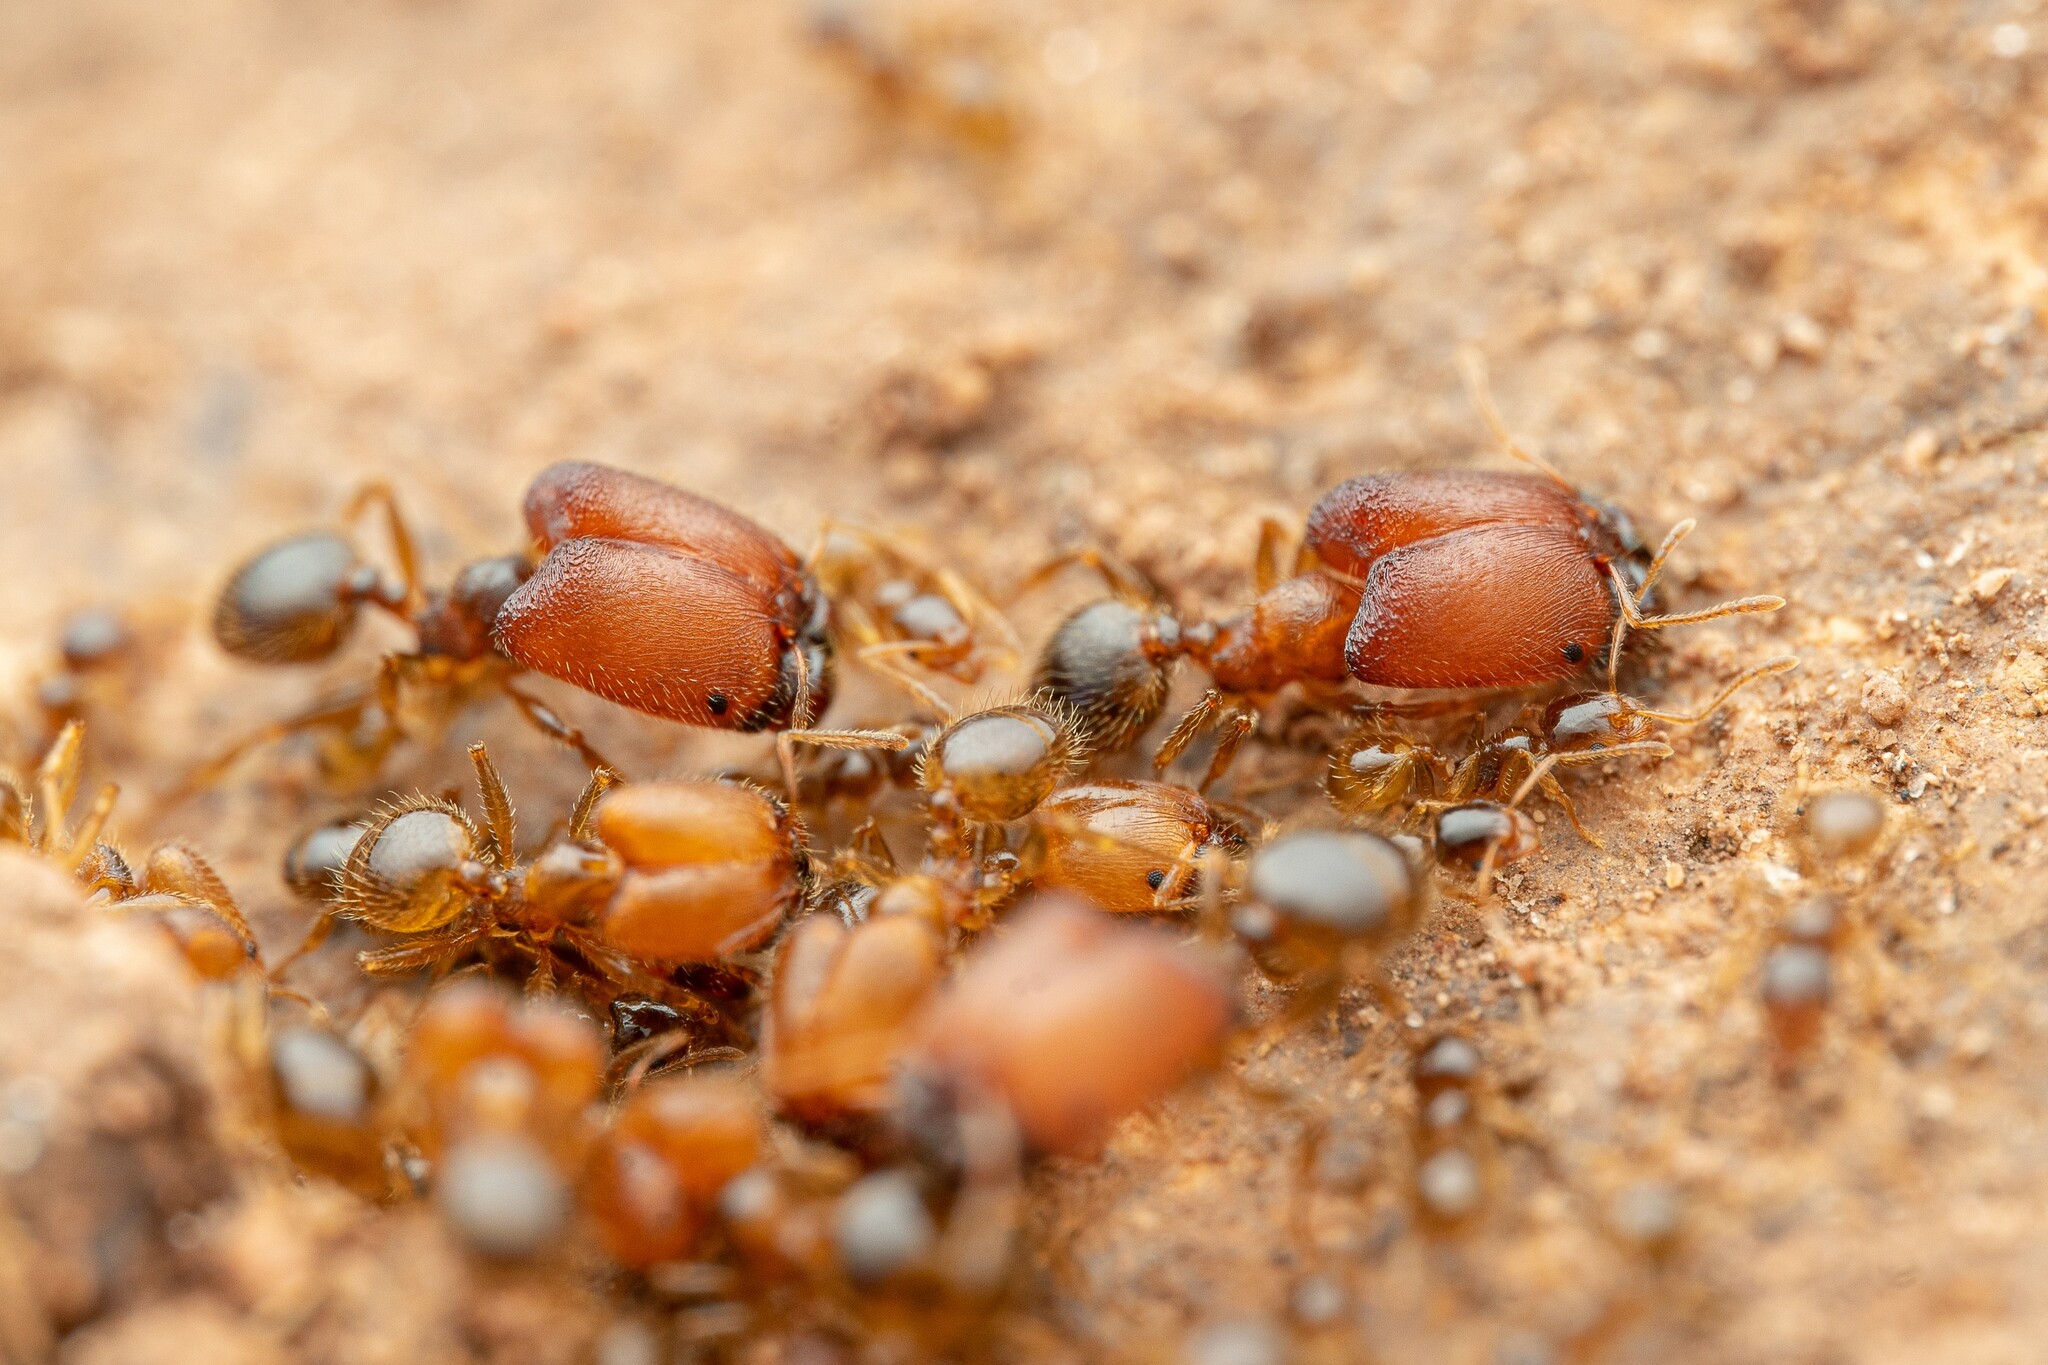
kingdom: Animalia
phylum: Arthropoda
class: Insecta
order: Hymenoptera
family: Formicidae
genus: Pheidole
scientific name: Pheidole tepicana
